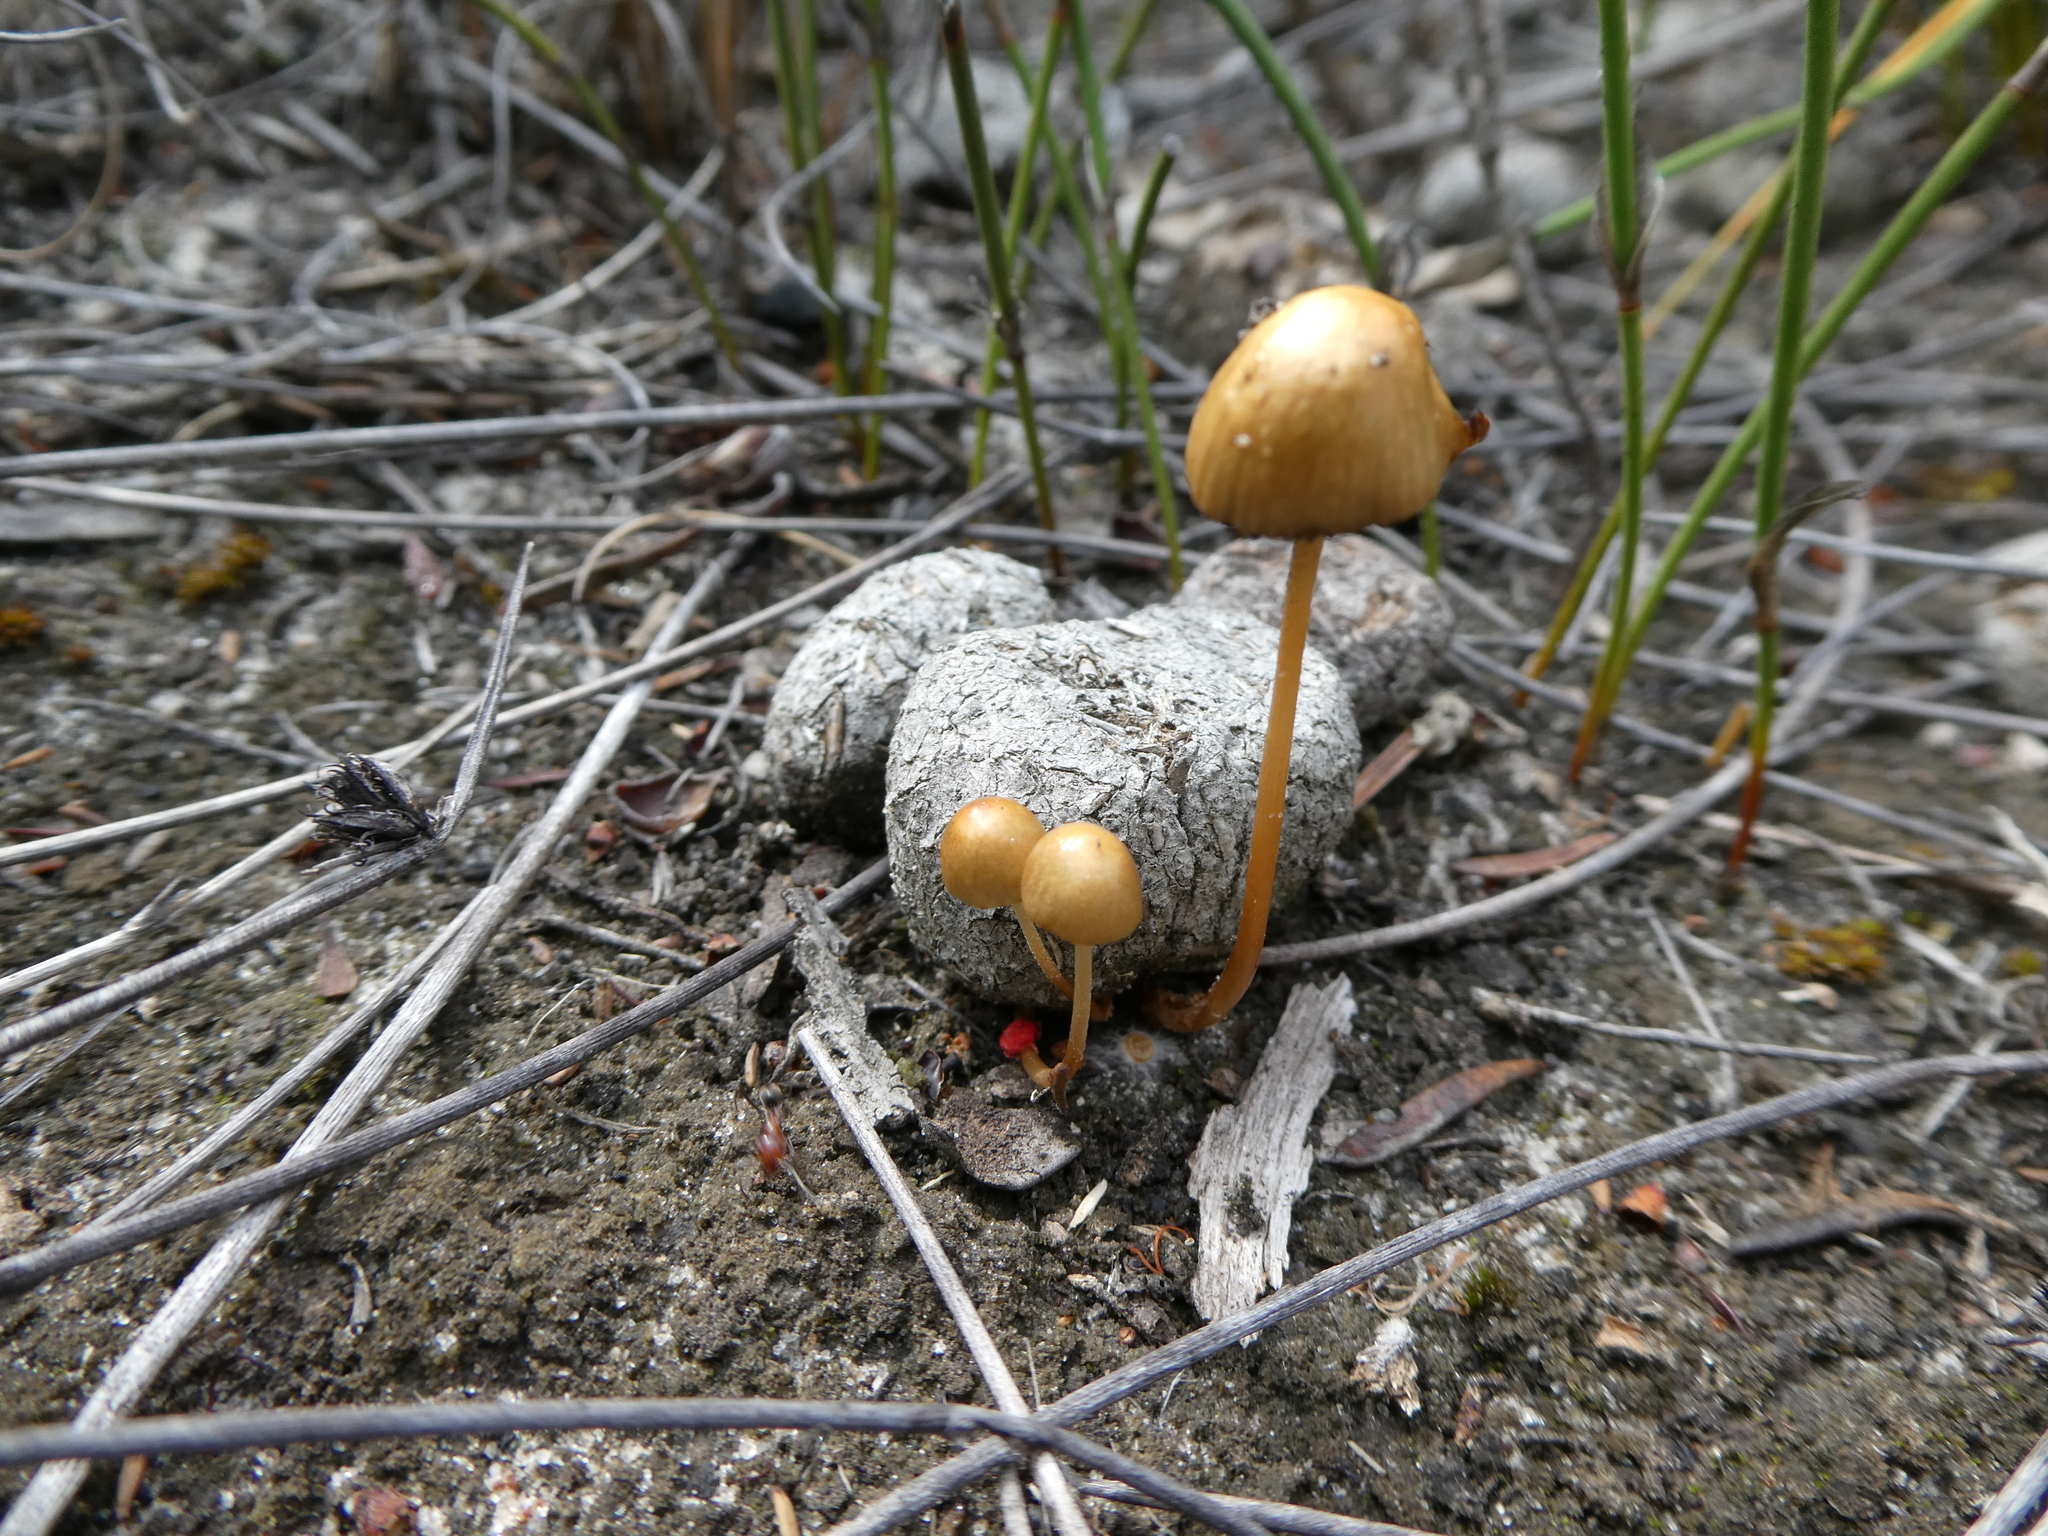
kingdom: Fungi
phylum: Basidiomycota
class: Agaricomycetes
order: Agaricales
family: Strophariaceae
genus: Deconica
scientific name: Deconica coprophila
